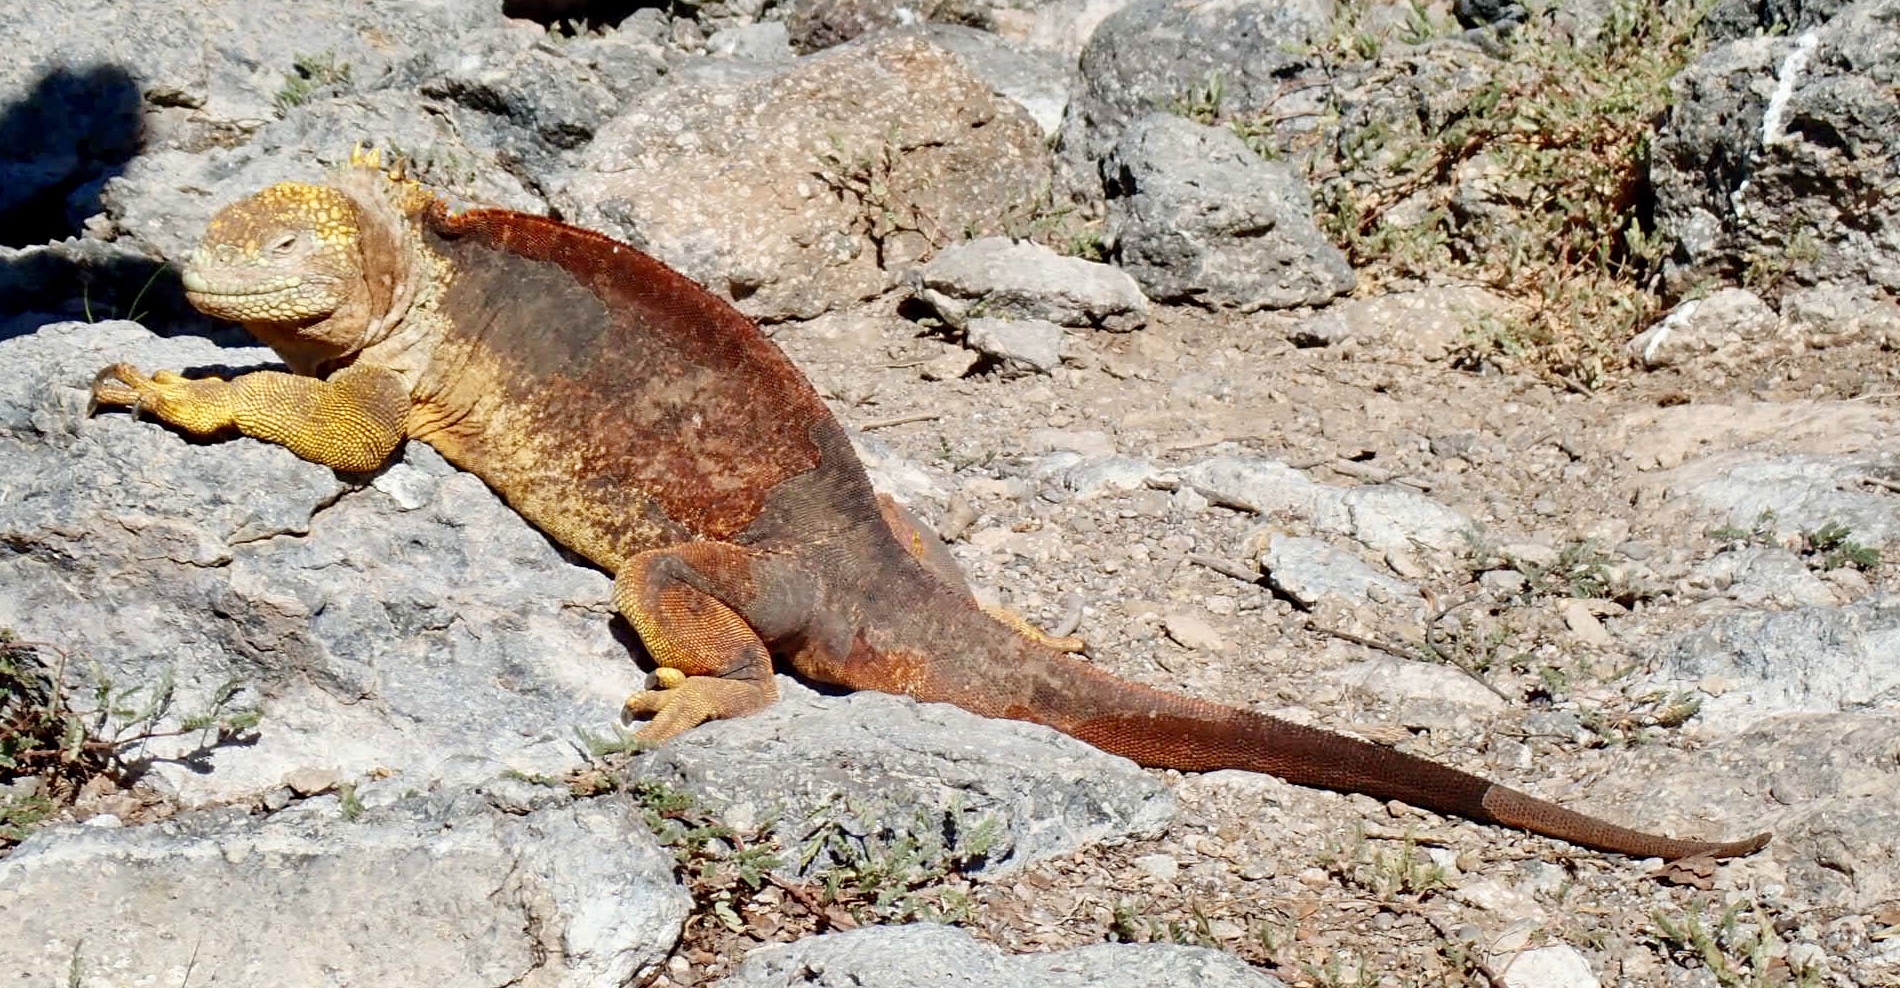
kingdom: Animalia
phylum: Chordata
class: Squamata
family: Iguanidae
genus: Conolophus
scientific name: Conolophus subcristatus
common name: Galapagos land iguana
